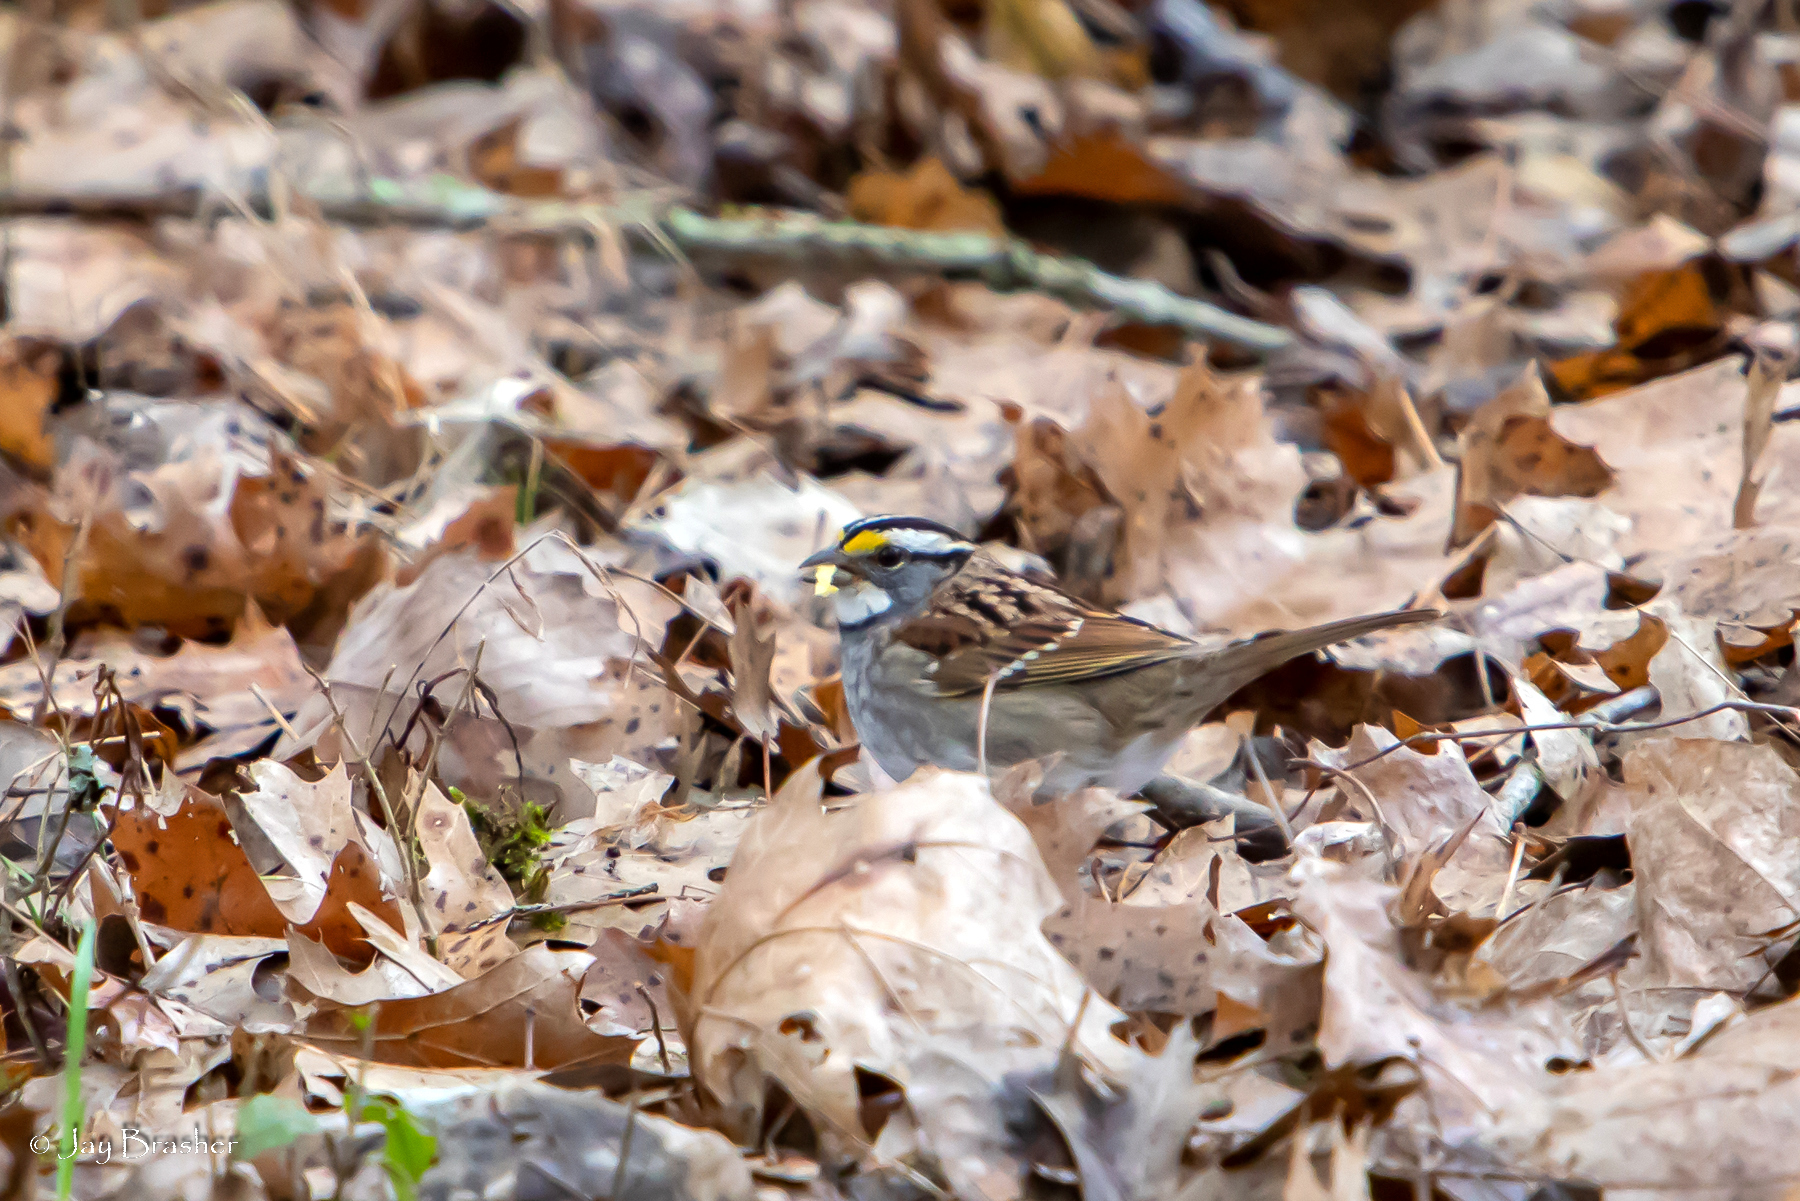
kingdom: Animalia
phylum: Chordata
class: Aves
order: Passeriformes
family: Passerellidae
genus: Zonotrichia
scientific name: Zonotrichia albicollis
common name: White-throated sparrow
